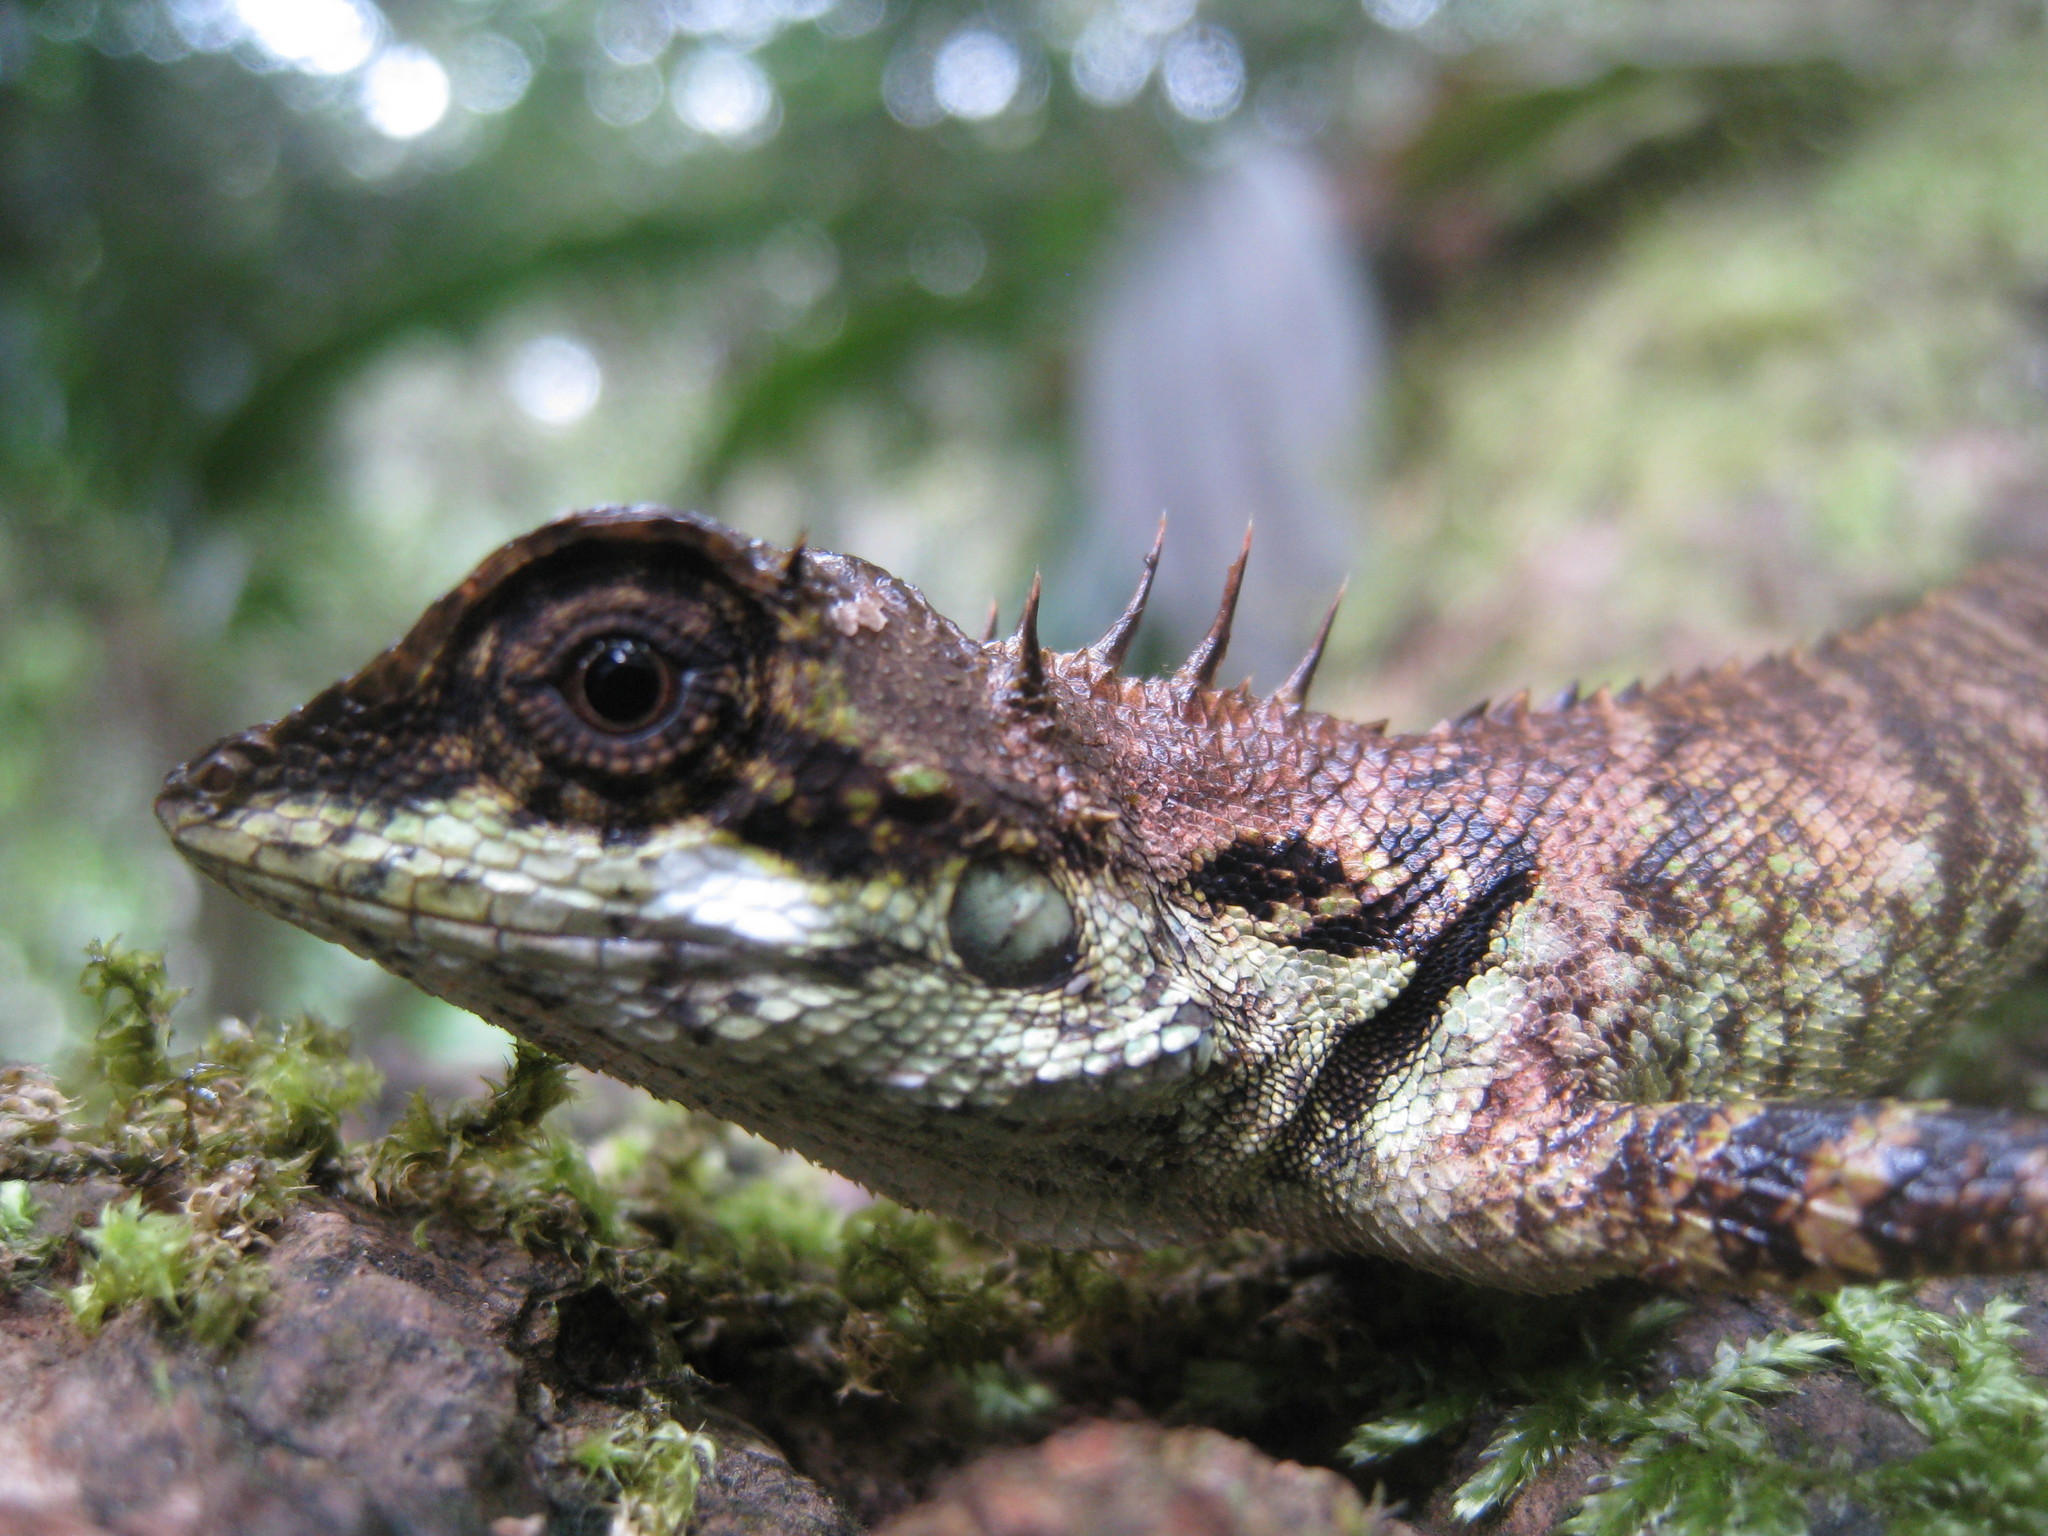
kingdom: Animalia
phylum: Chordata
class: Squamata
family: Agamidae
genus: Monilesaurus
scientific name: Monilesaurus ellioti
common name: Elliot's forest lizard
